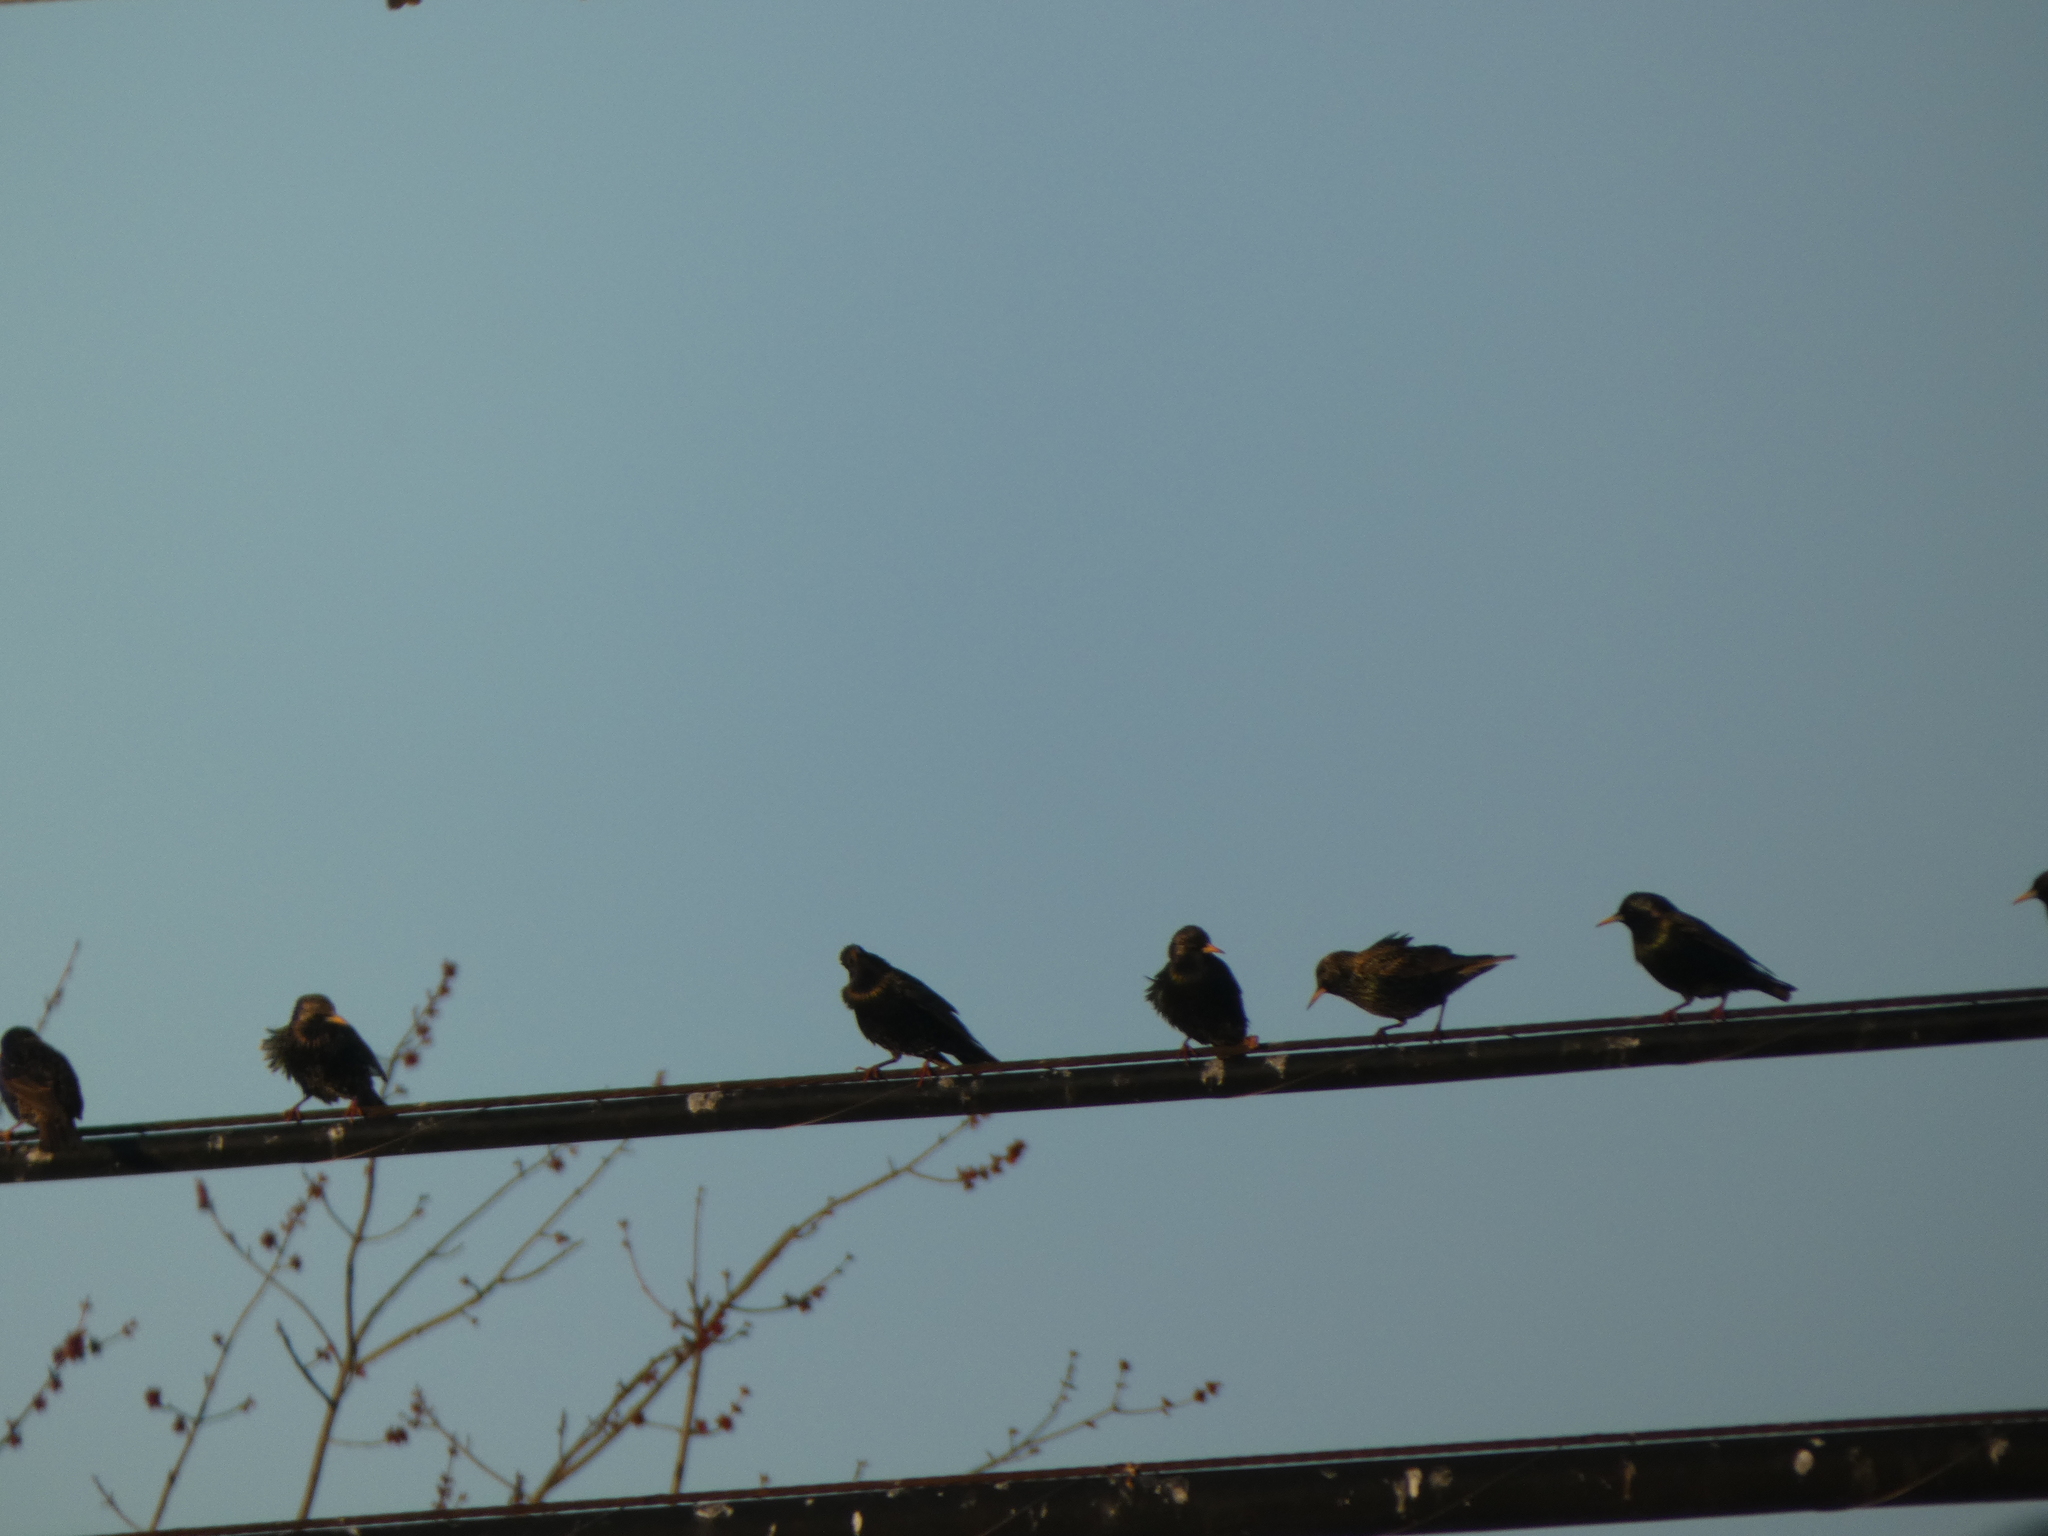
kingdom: Animalia
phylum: Chordata
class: Aves
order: Passeriformes
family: Sturnidae
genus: Sturnus
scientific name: Sturnus vulgaris
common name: Common starling
